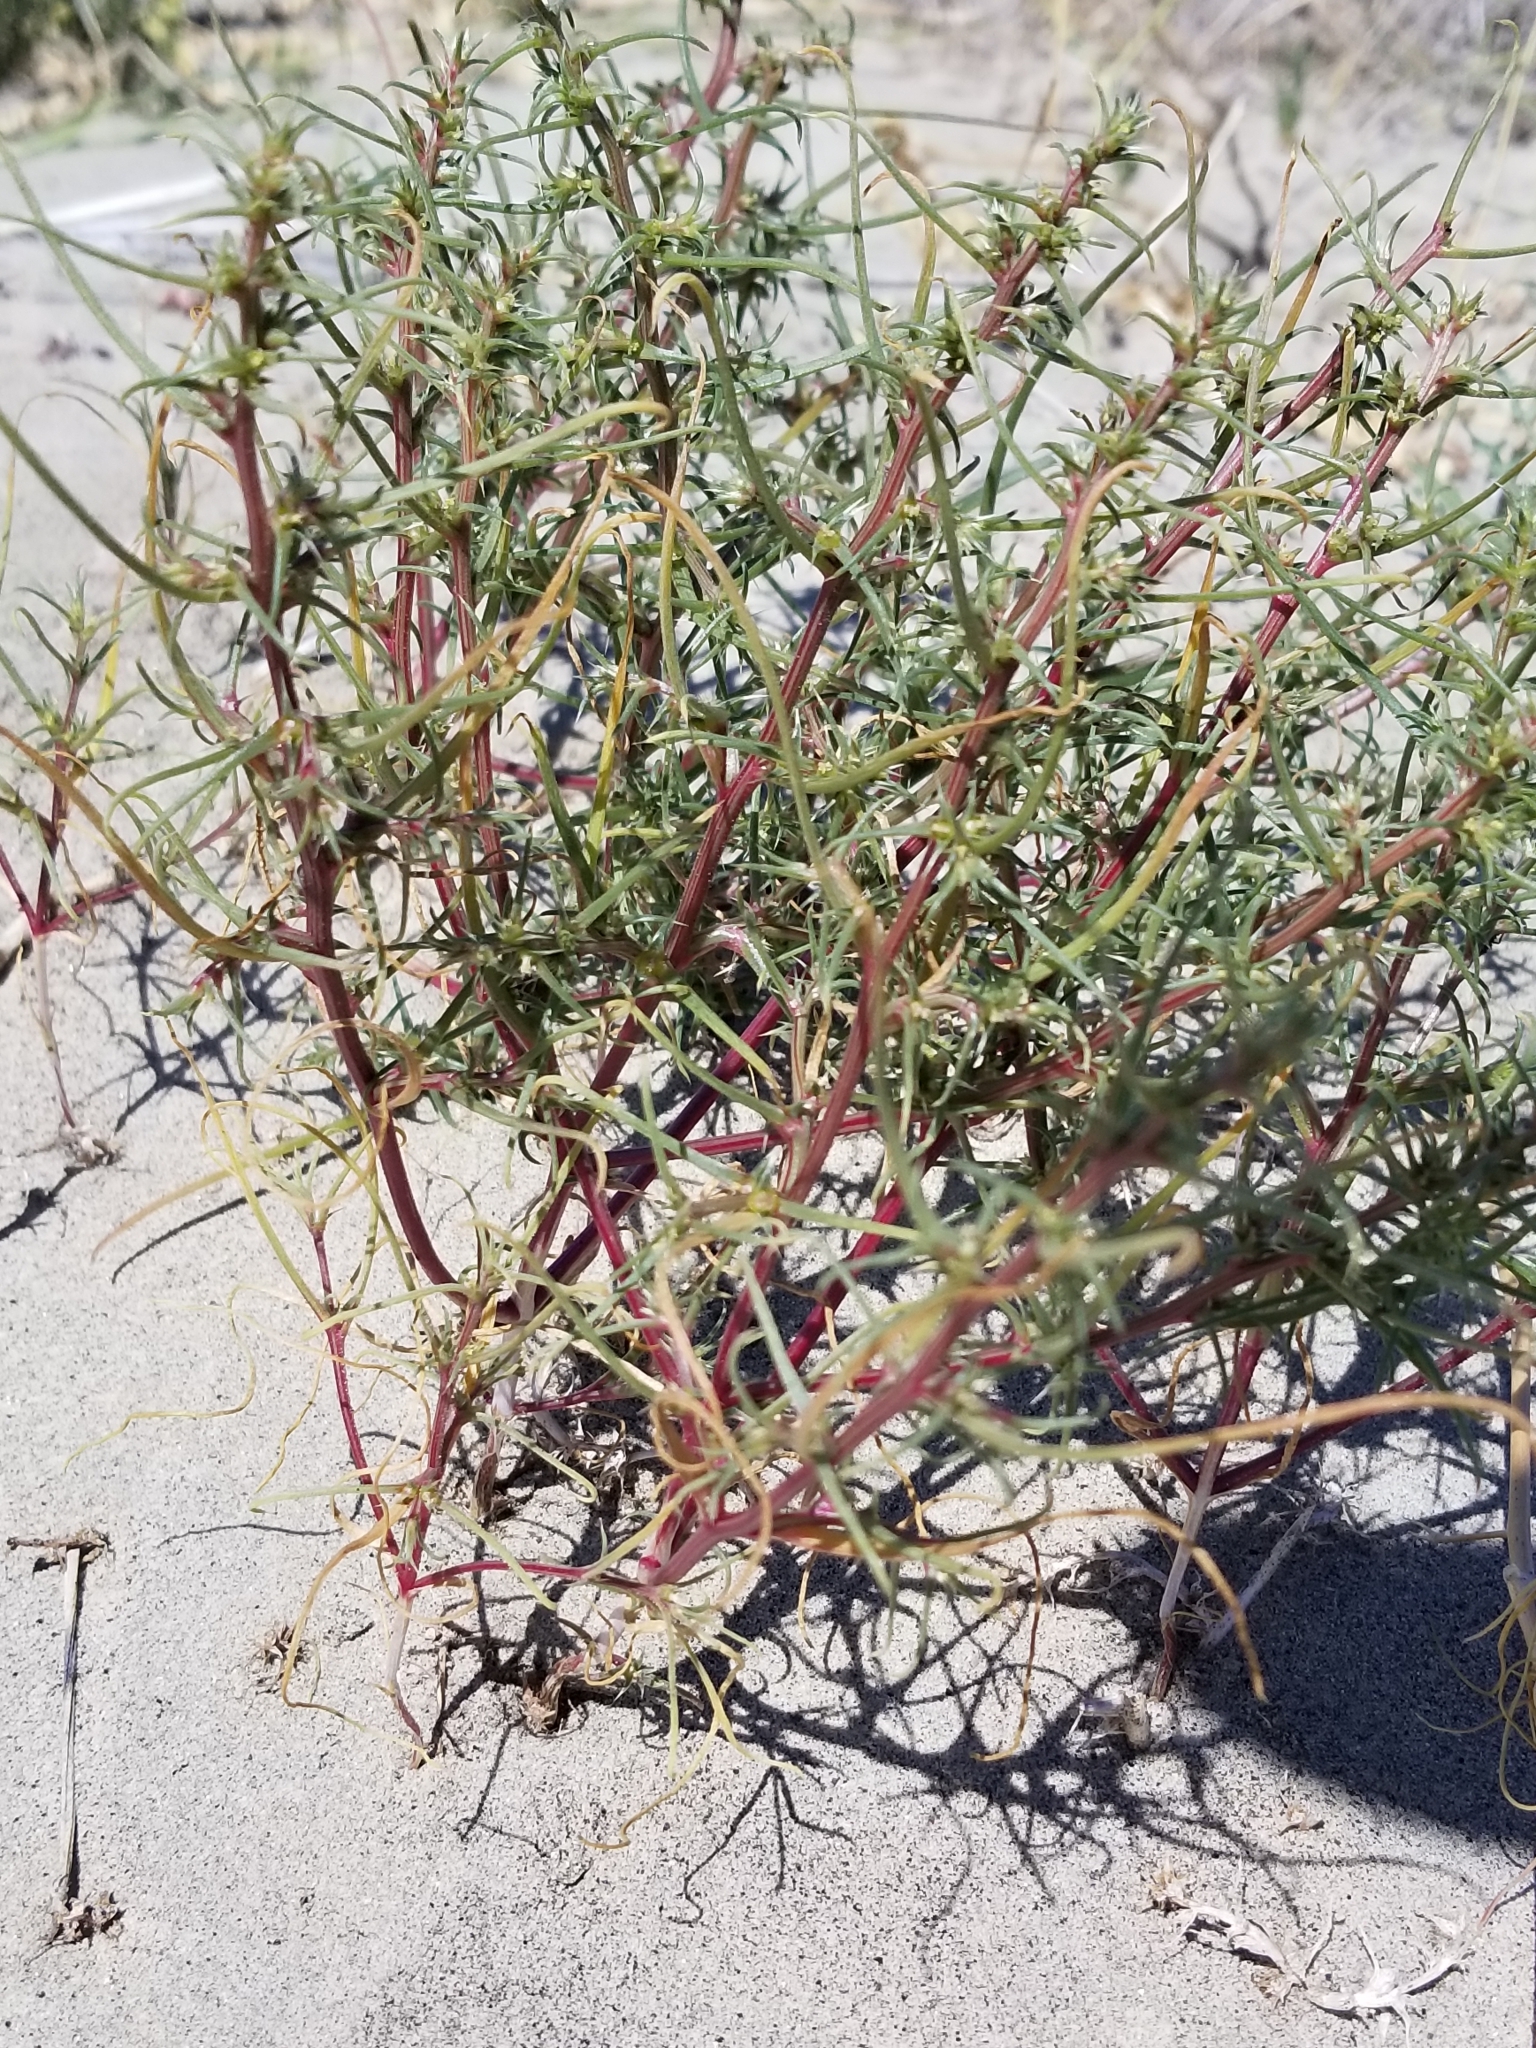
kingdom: Plantae
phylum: Tracheophyta
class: Magnoliopsida
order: Caryophyllales
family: Amaranthaceae
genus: Salsola
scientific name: Salsola tragus
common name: Prickly russian thistle
